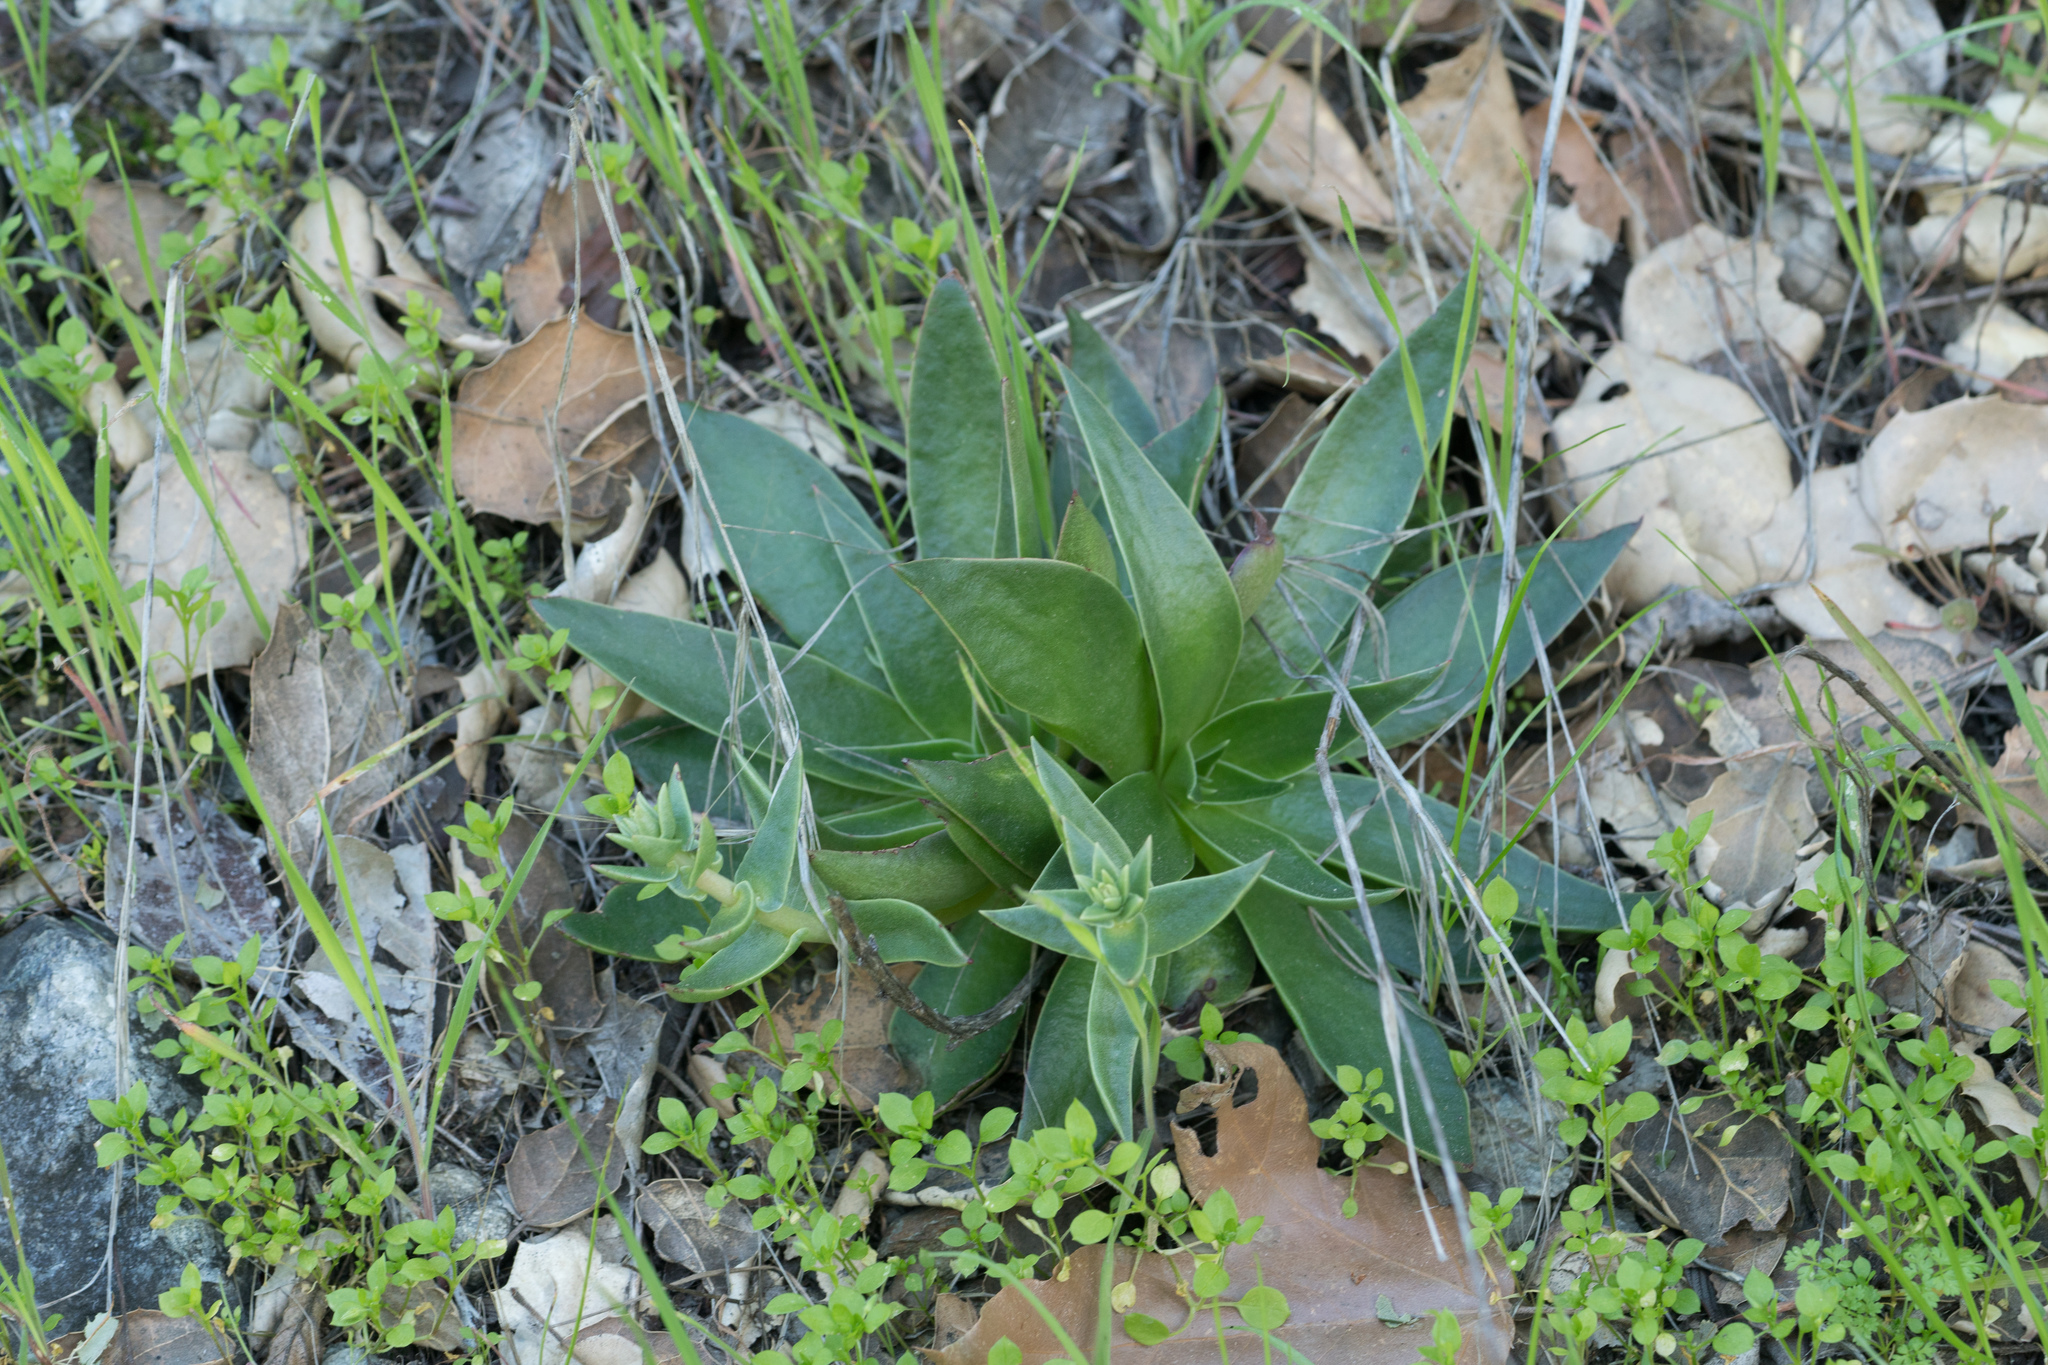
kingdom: Plantae
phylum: Tracheophyta
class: Magnoliopsida
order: Saxifragales
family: Crassulaceae
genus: Dudleya
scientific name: Dudleya lanceolata
